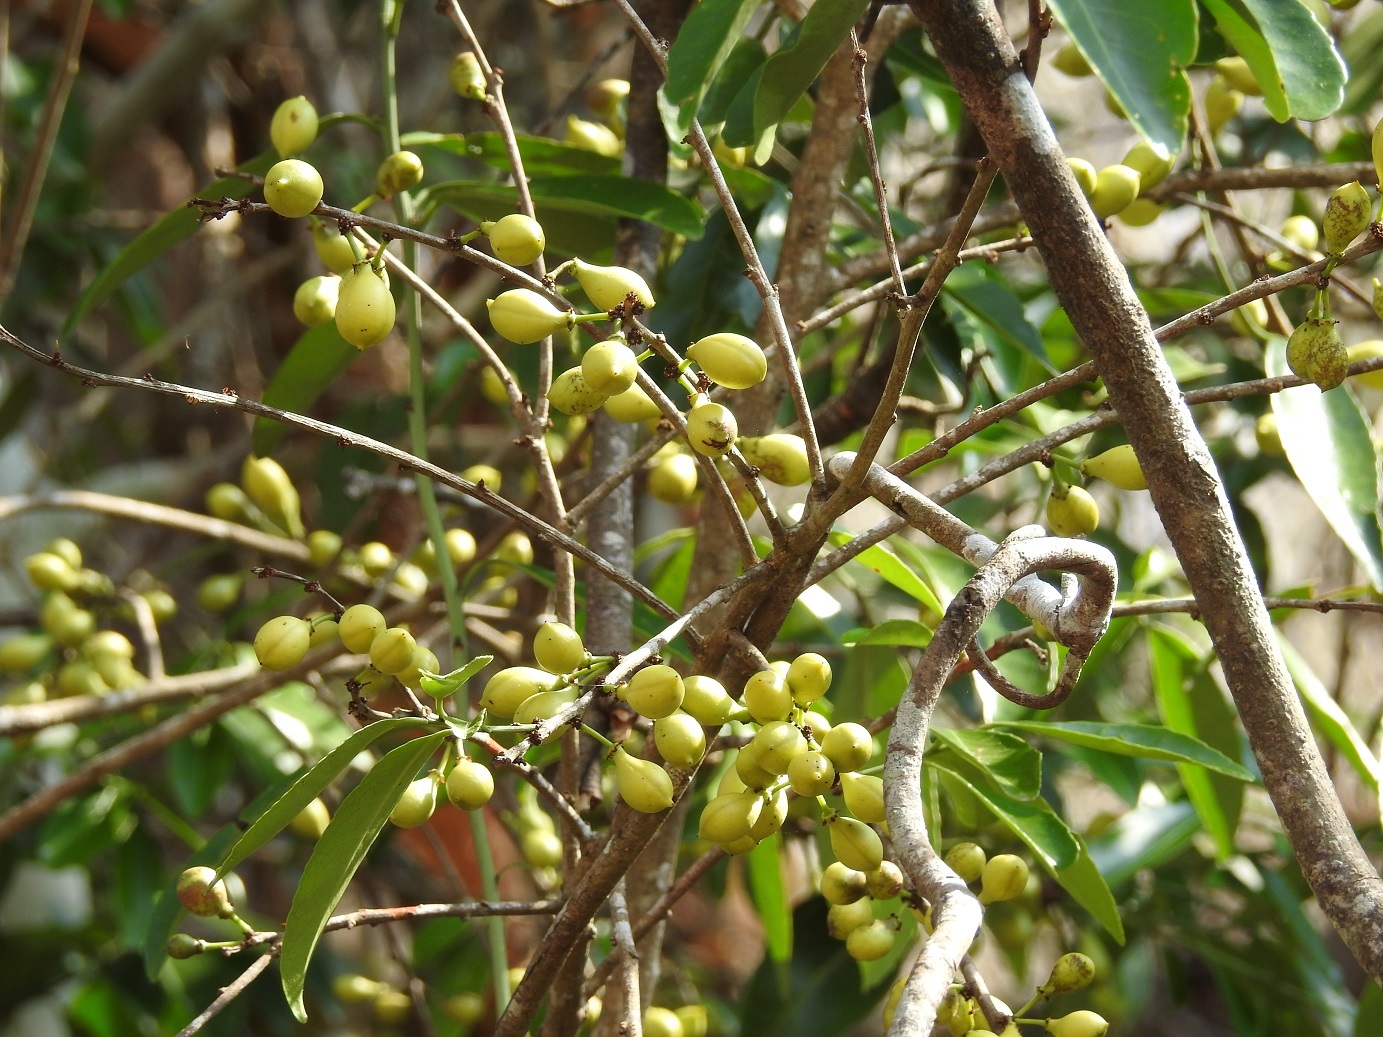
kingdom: Plantae
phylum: Tracheophyta
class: Magnoliopsida
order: Celastrales
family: Celastraceae
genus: Monteverdia
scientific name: Monteverdia stipitata
